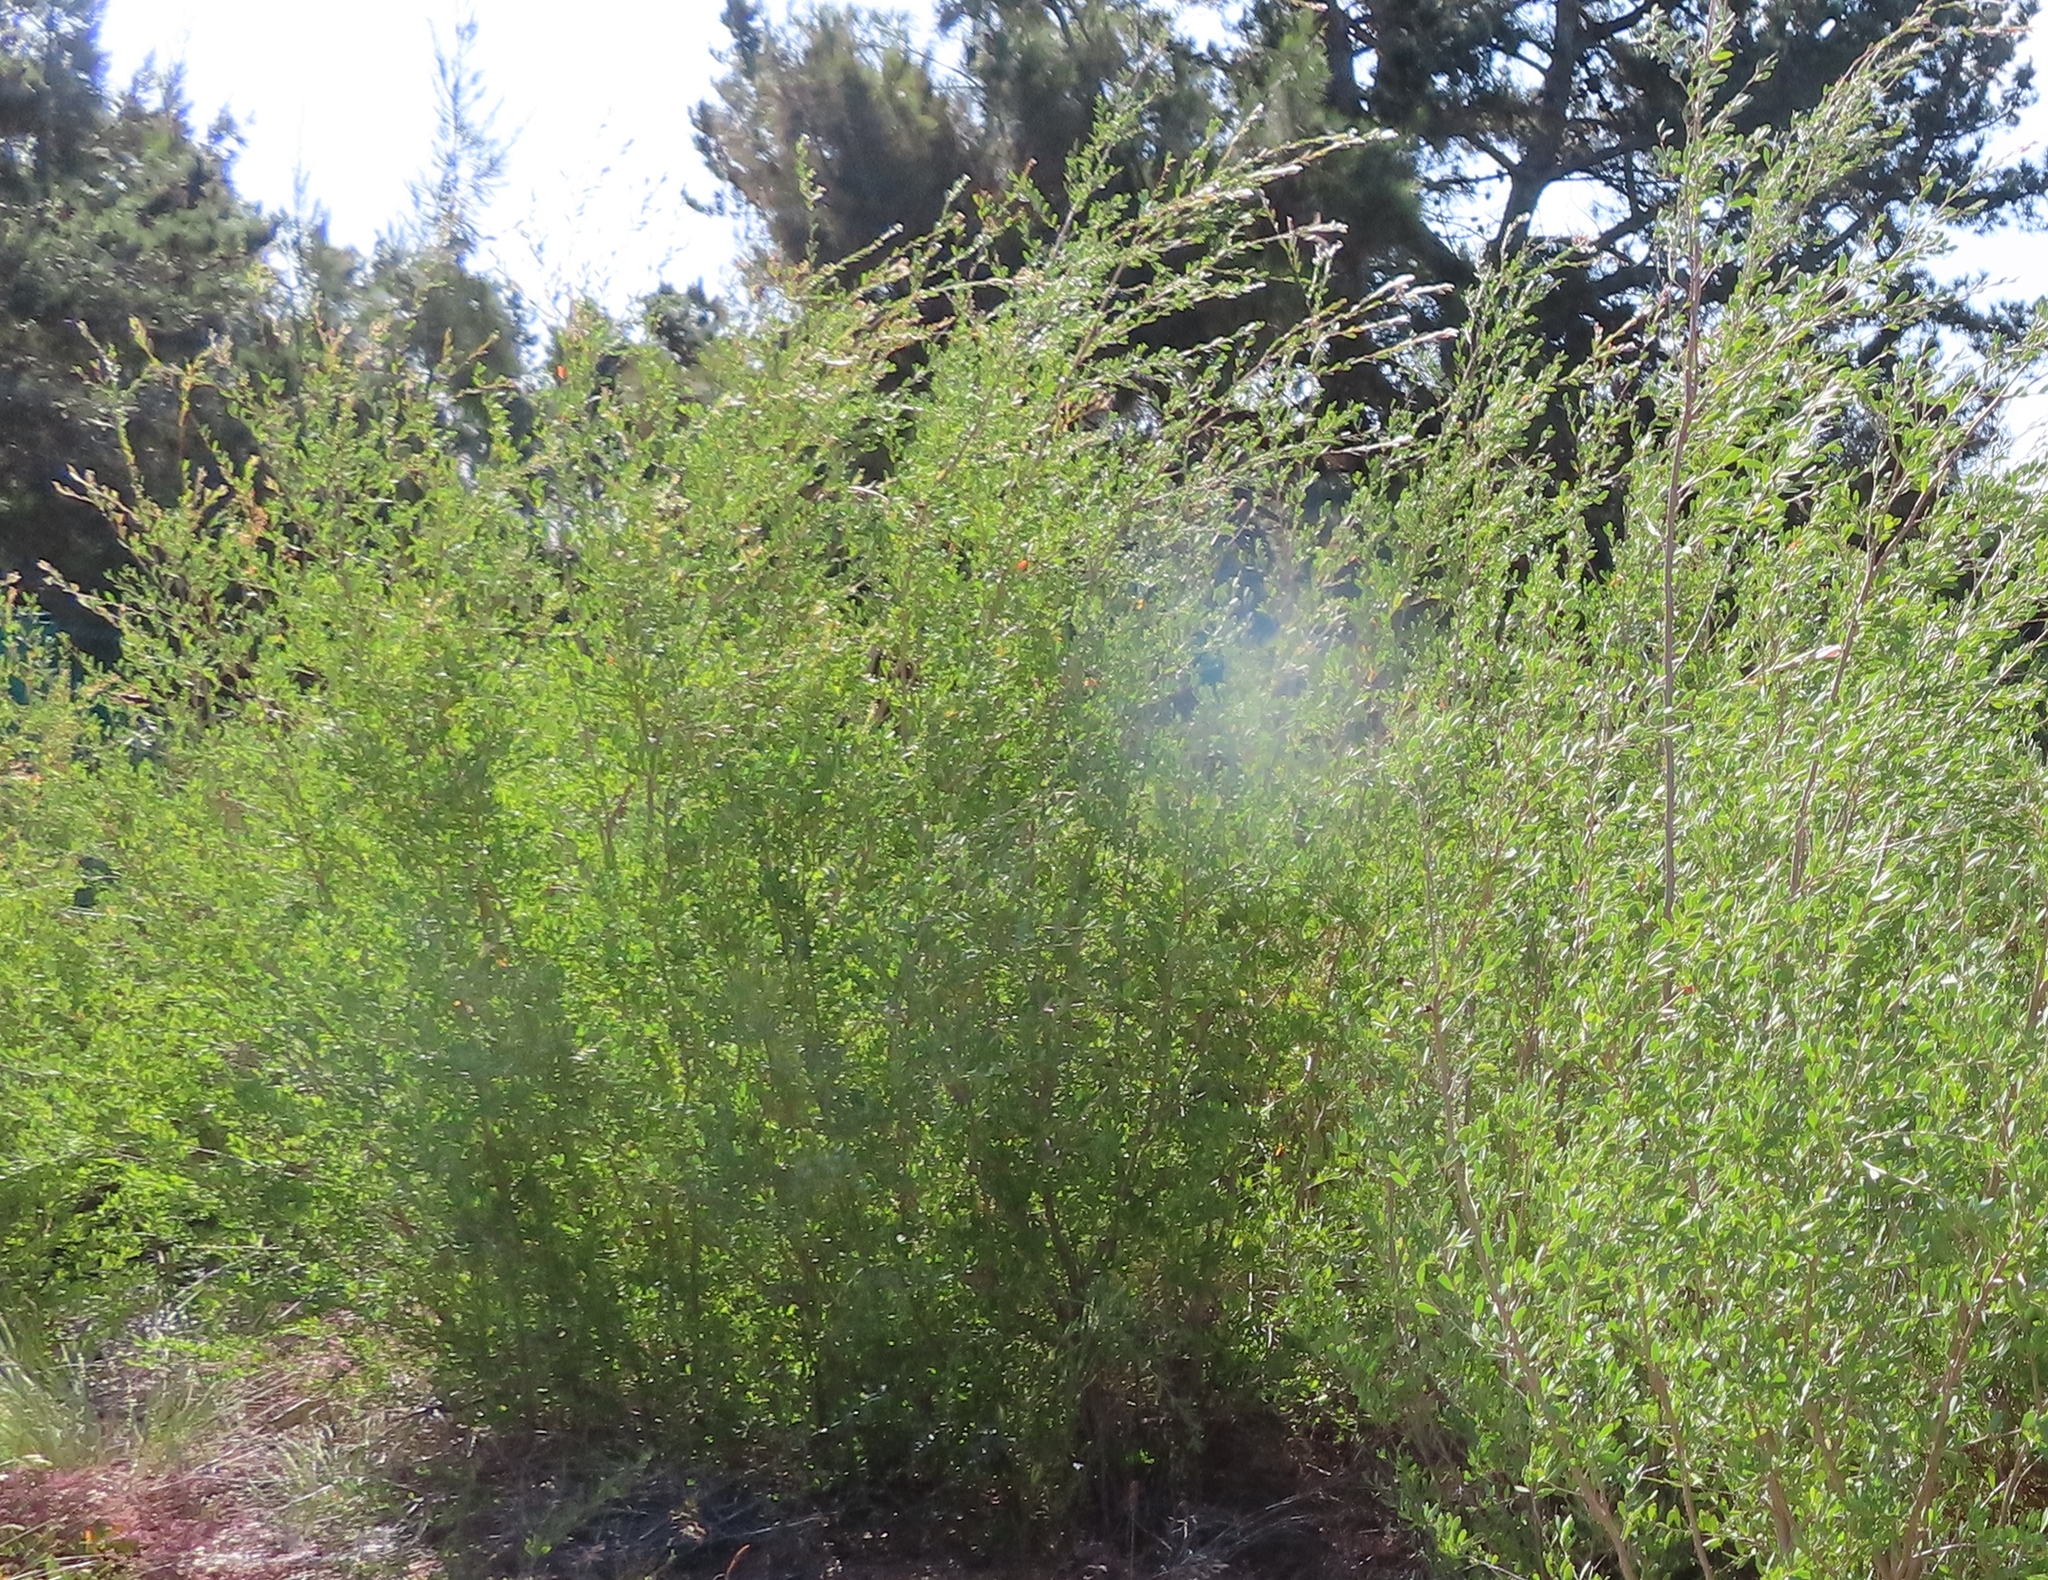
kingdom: Plantae
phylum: Tracheophyta
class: Magnoliopsida
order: Myrtales
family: Myrtaceae
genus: Leptospermum
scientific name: Leptospermum laevigatum
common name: Australian teatree
